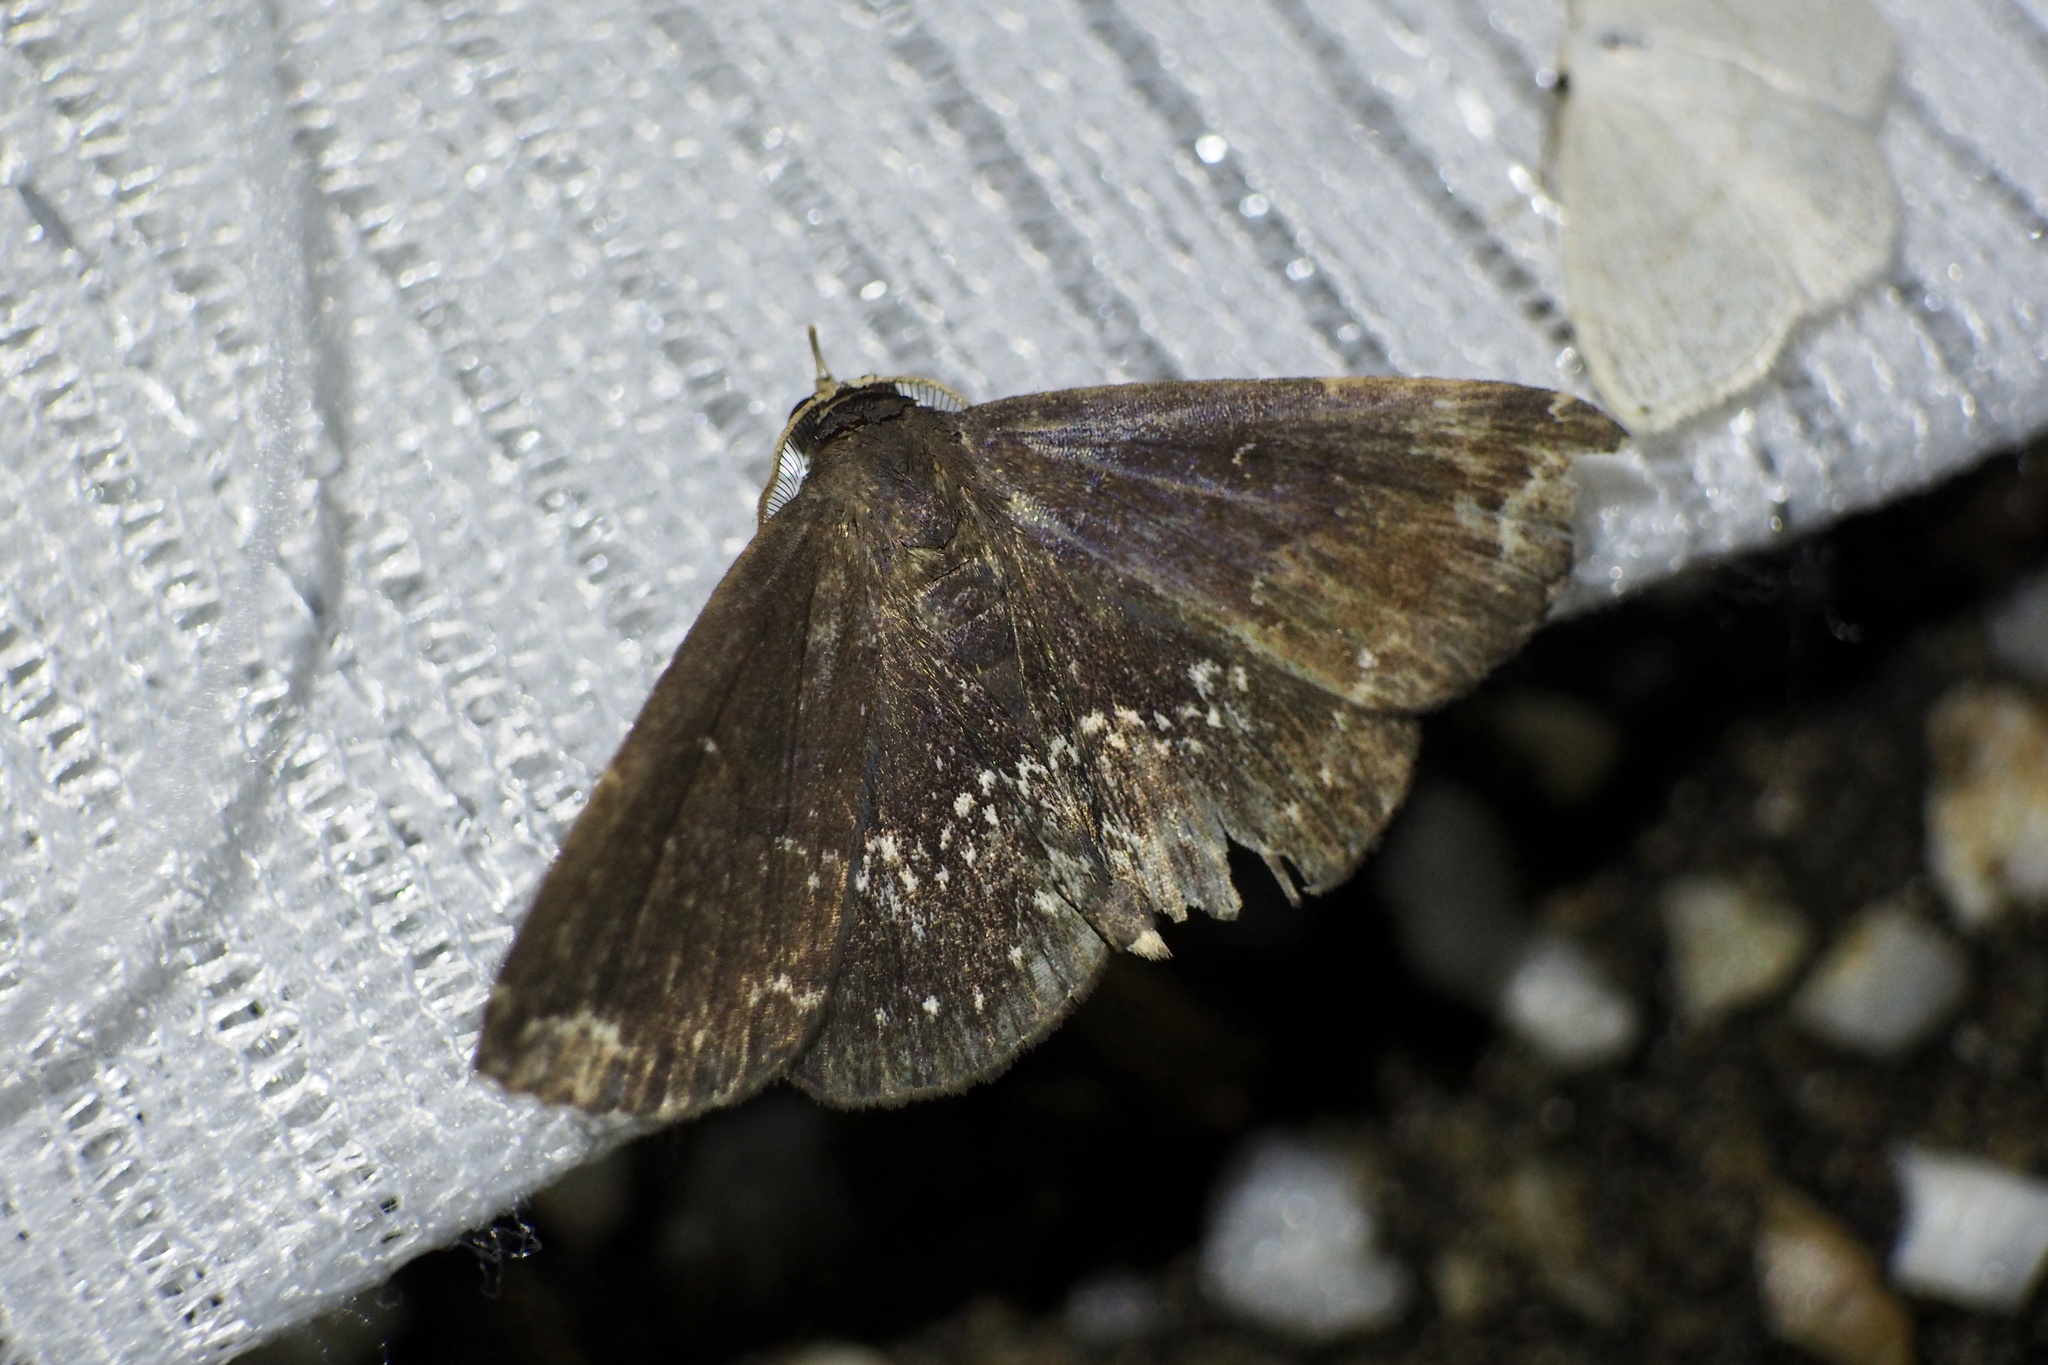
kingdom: Animalia
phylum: Arthropoda
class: Insecta
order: Lepidoptera
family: Erebidae
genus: Adrapsa
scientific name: Adrapsa notigera
